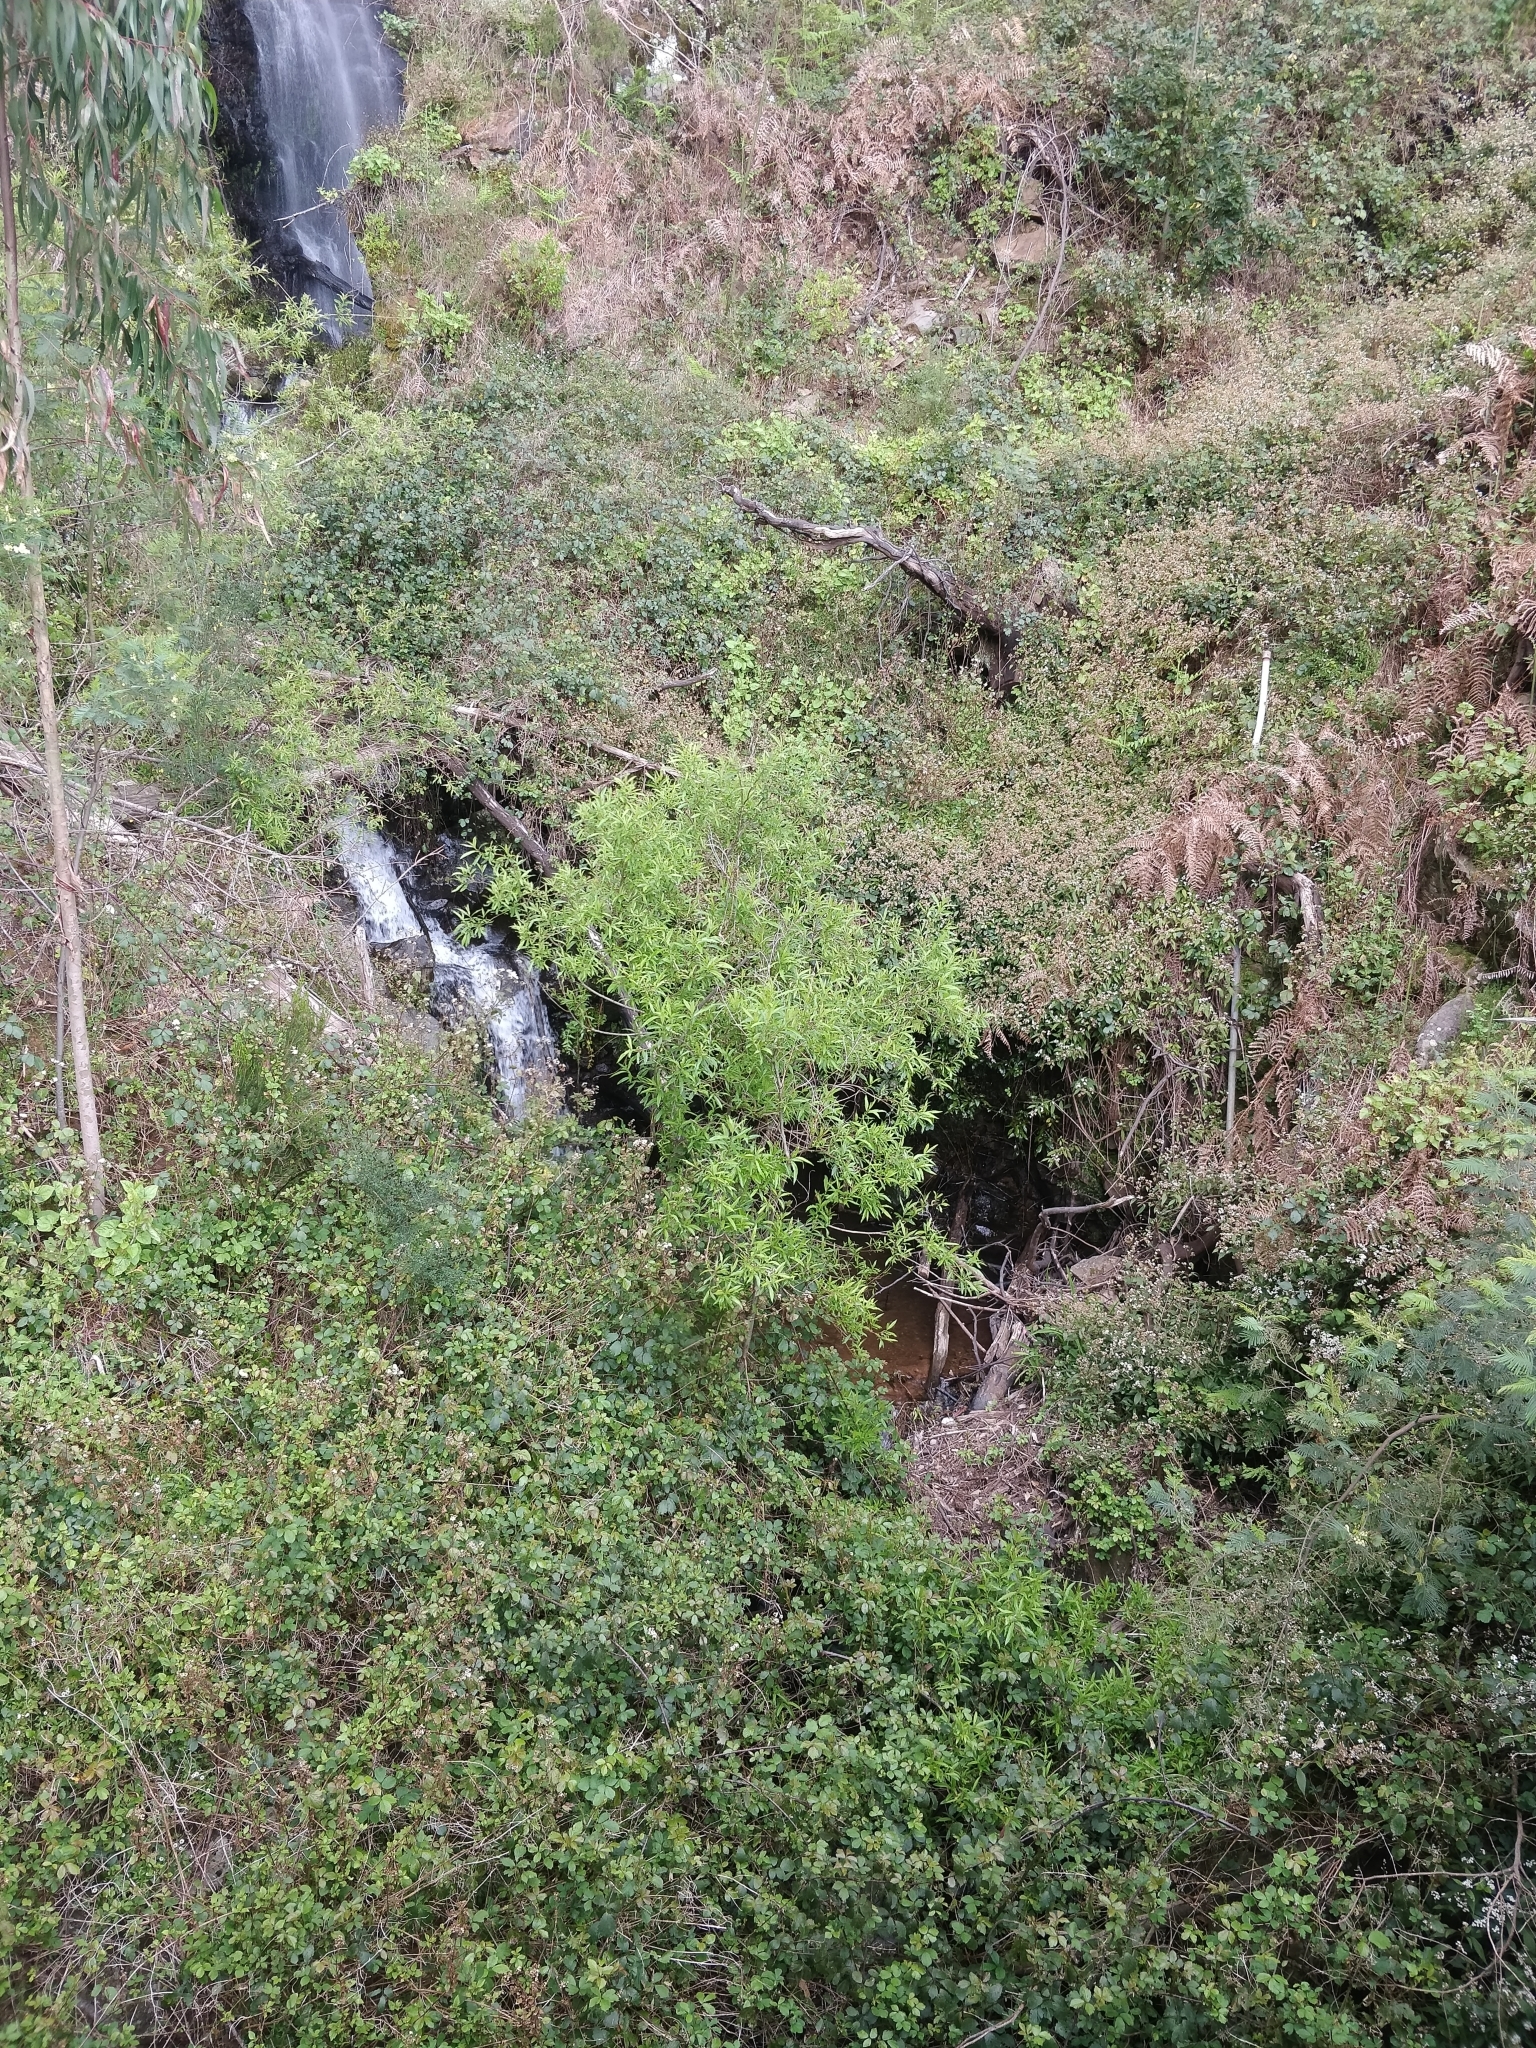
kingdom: Plantae
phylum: Tracheophyta
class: Magnoliopsida
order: Malpighiales
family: Salicaceae
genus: Salix
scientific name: Salix canariensis
